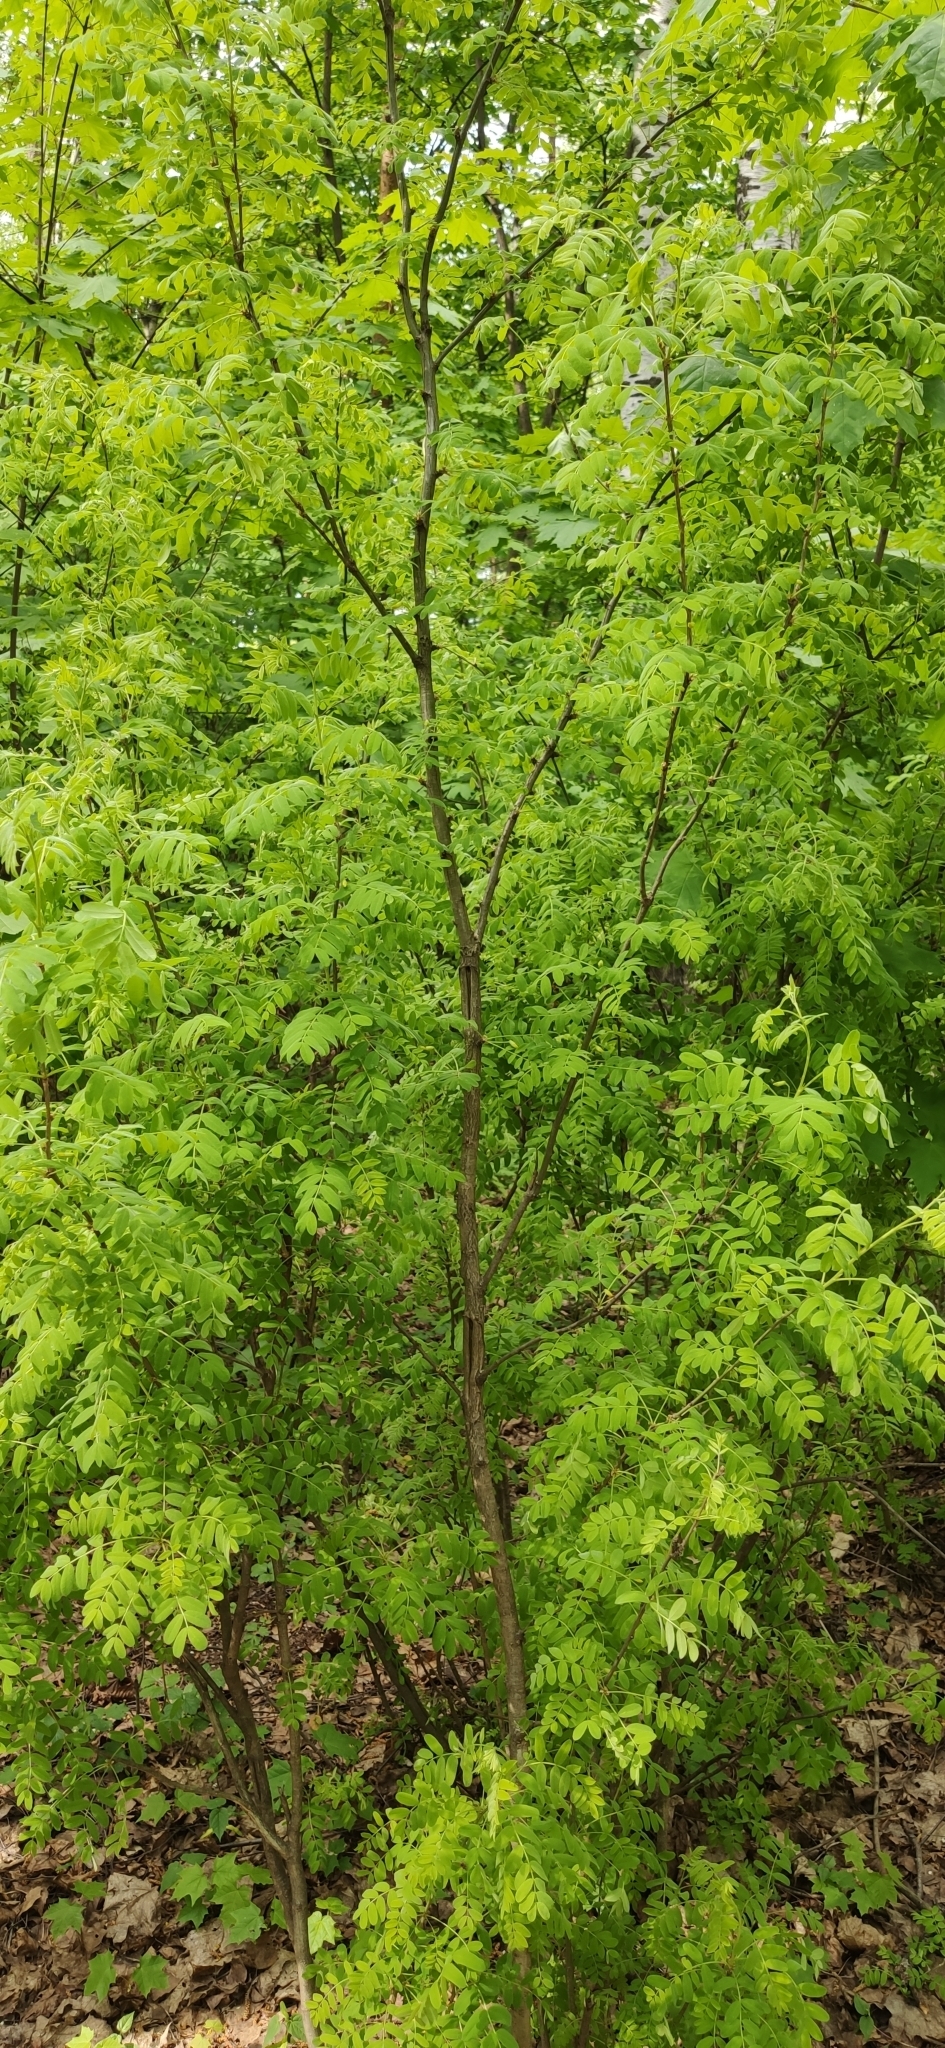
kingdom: Plantae
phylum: Tracheophyta
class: Magnoliopsida
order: Fabales
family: Fabaceae
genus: Caragana
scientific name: Caragana arborescens
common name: Siberian peashrub
